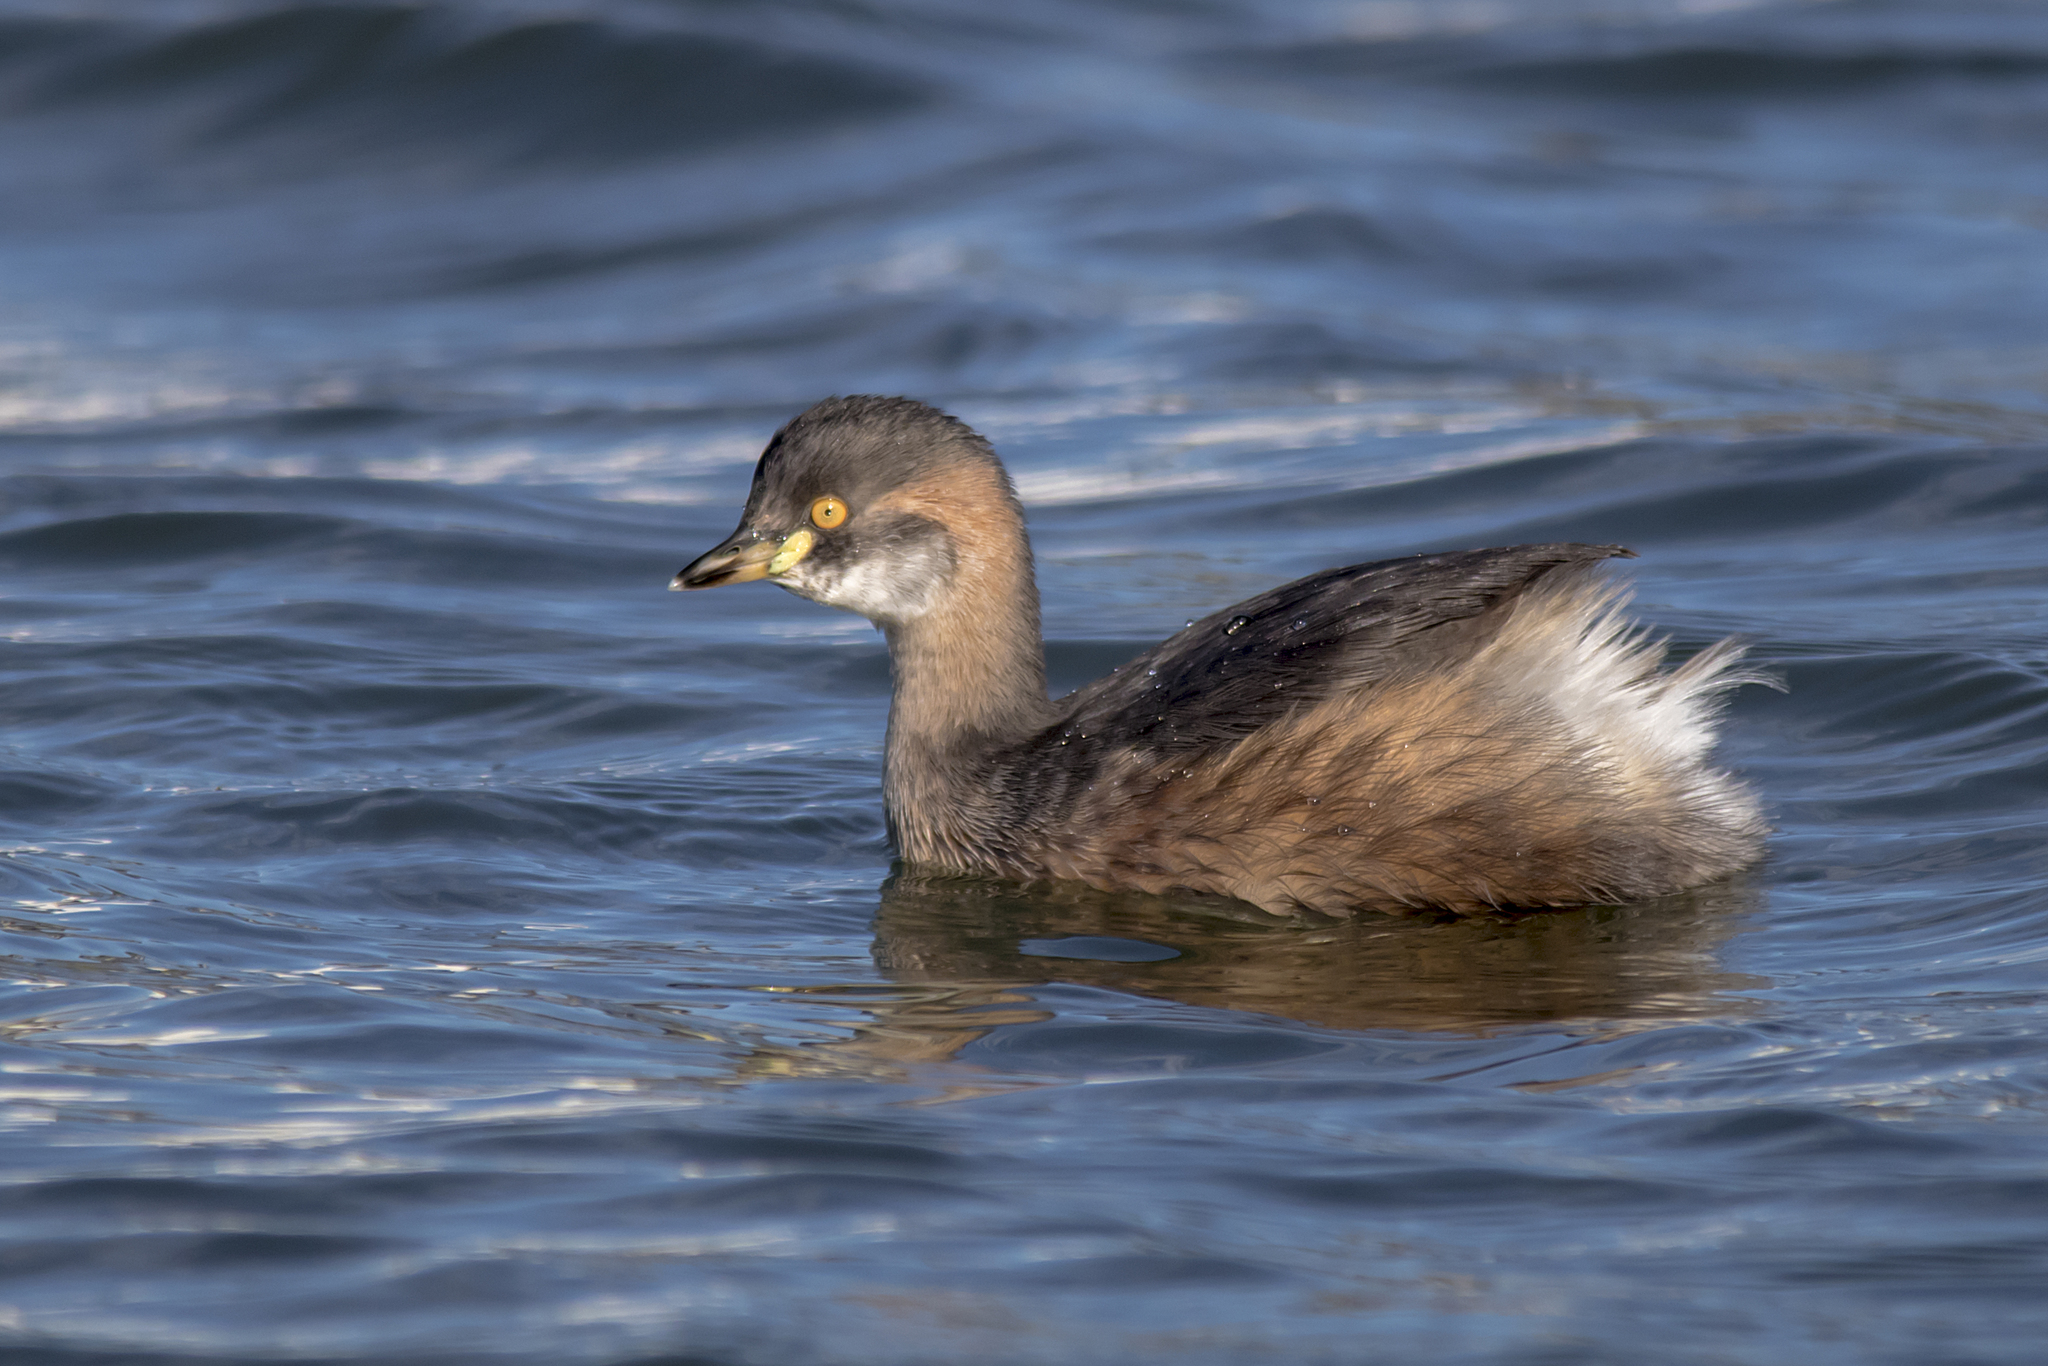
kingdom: Animalia
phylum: Chordata
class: Aves
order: Podicipediformes
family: Podicipedidae
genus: Tachybaptus
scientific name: Tachybaptus novaehollandiae
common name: Australasian grebe
